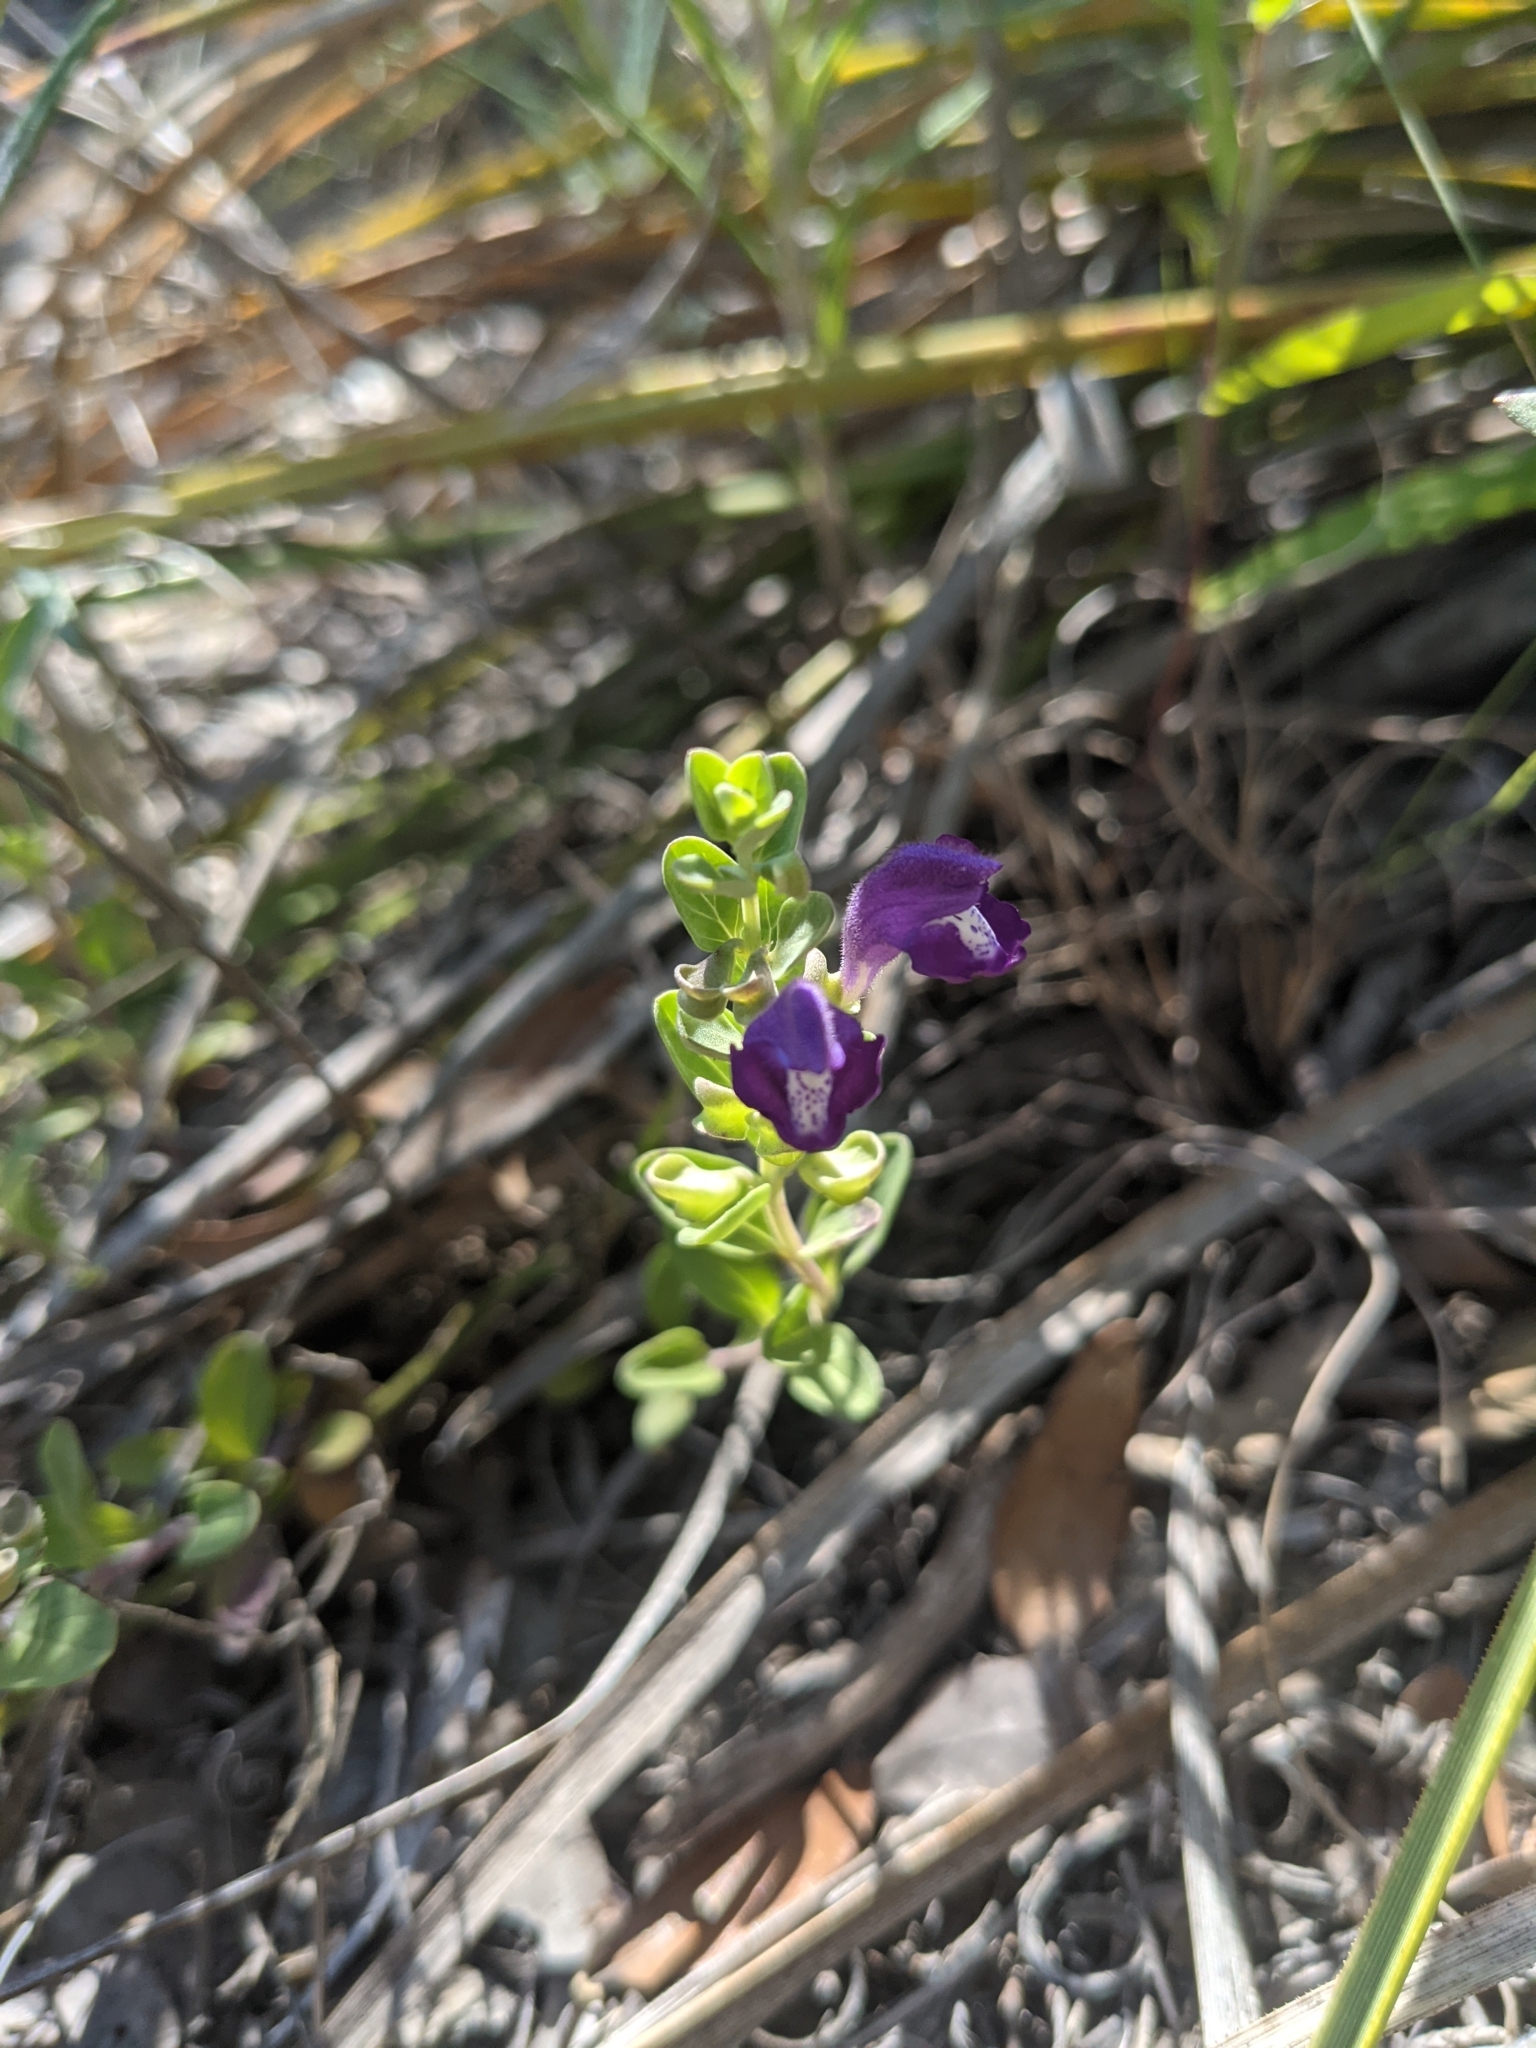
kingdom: Plantae
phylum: Tracheophyta
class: Magnoliopsida
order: Lamiales
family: Lamiaceae
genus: Scutellaria
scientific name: Scutellaria wrightii
